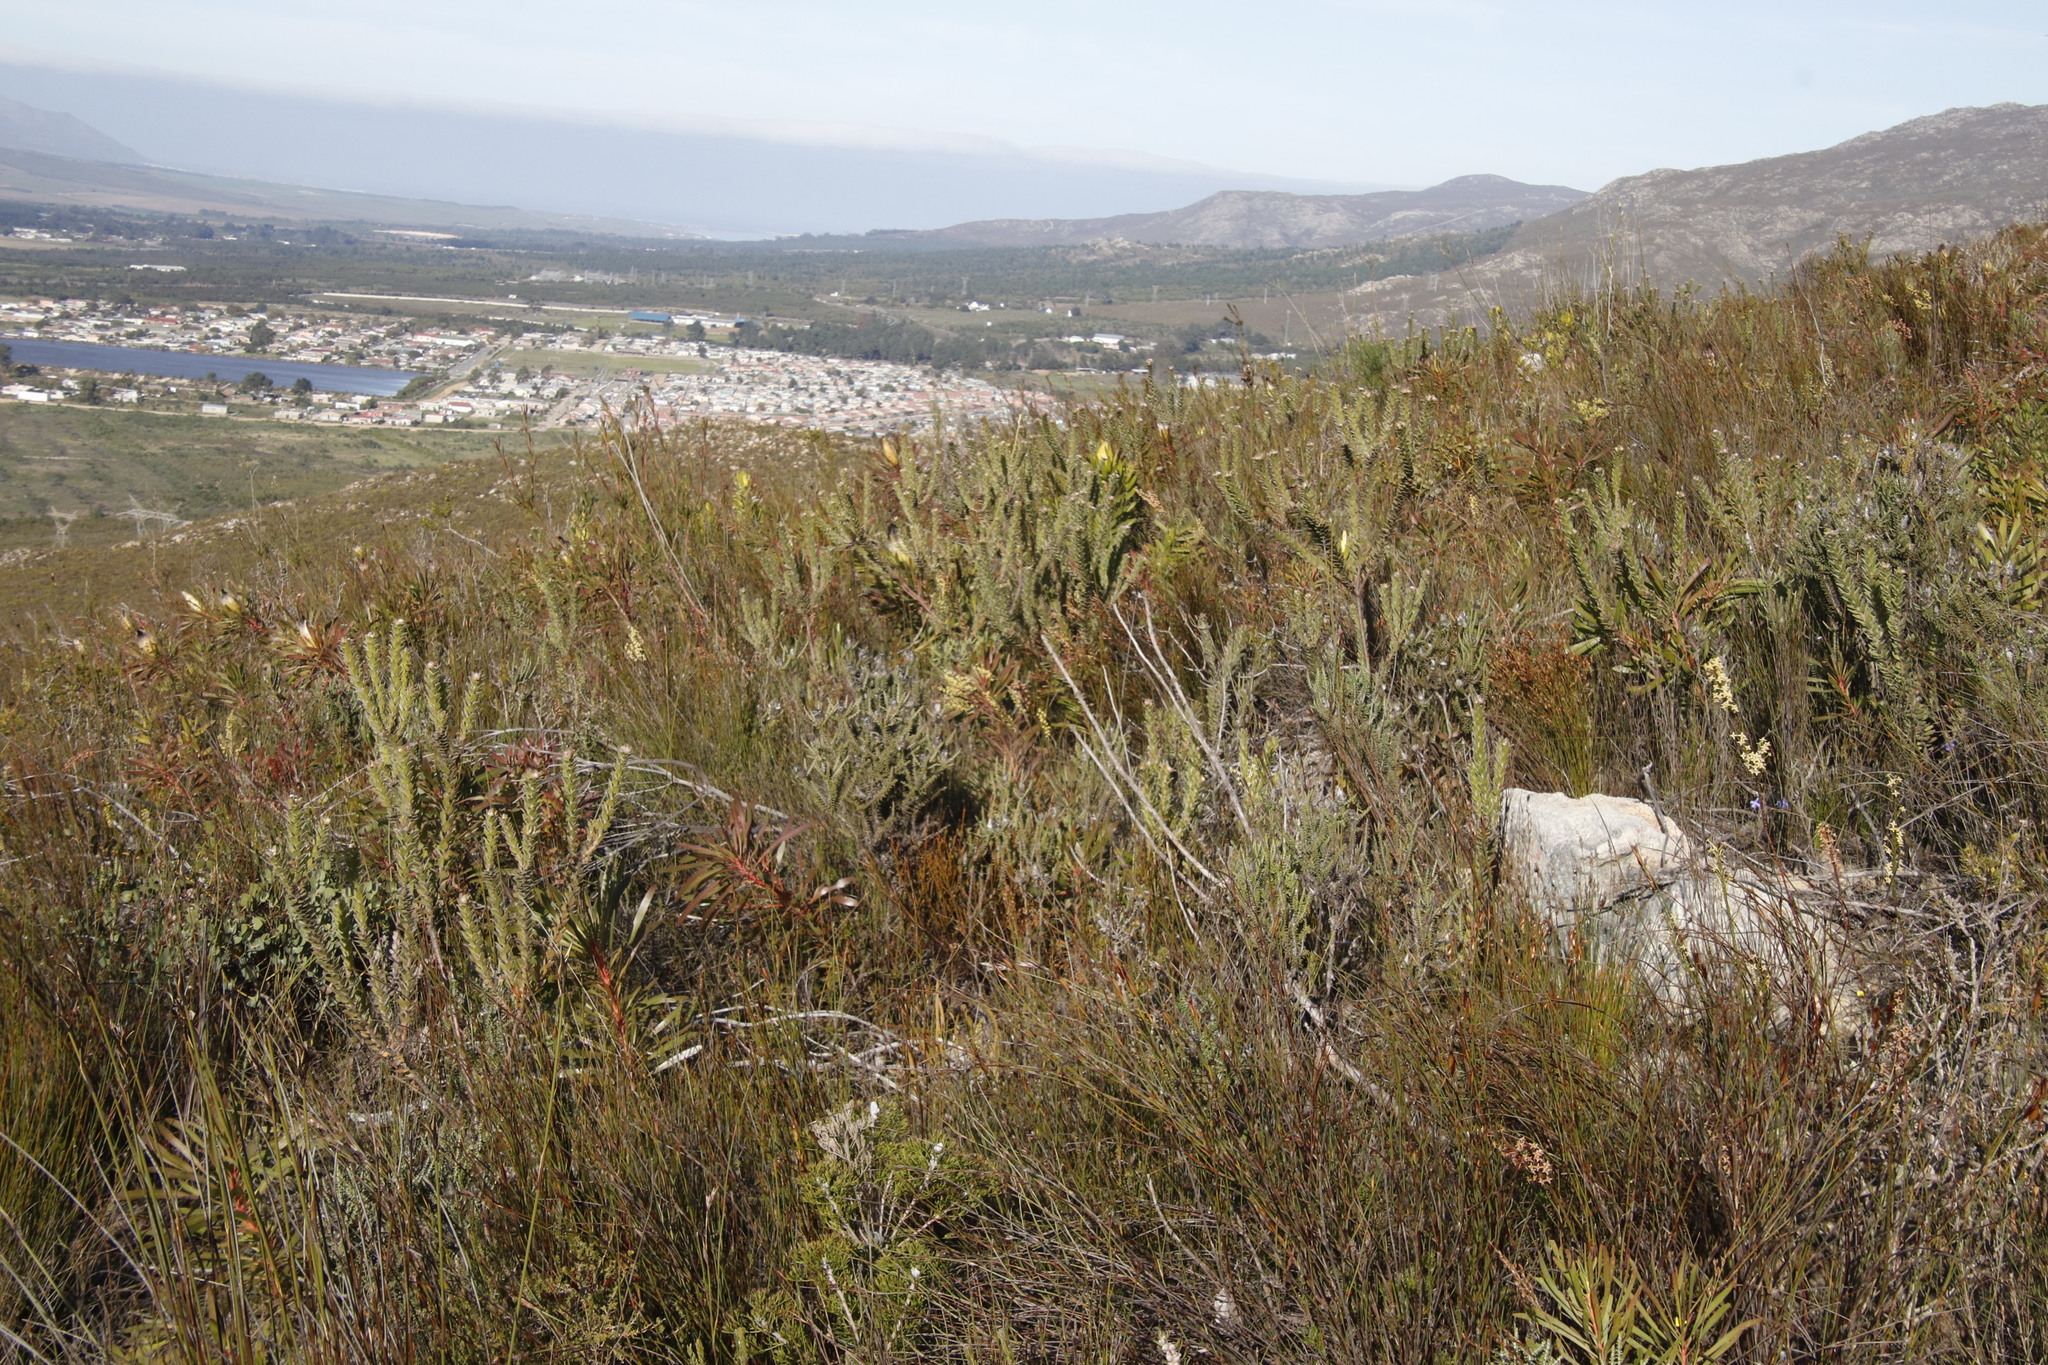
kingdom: Plantae
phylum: Tracheophyta
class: Magnoliopsida
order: Proteales
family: Proteaceae
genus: Leucospermum
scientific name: Leucospermum truncatulum
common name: Oval-leaf pincushion
